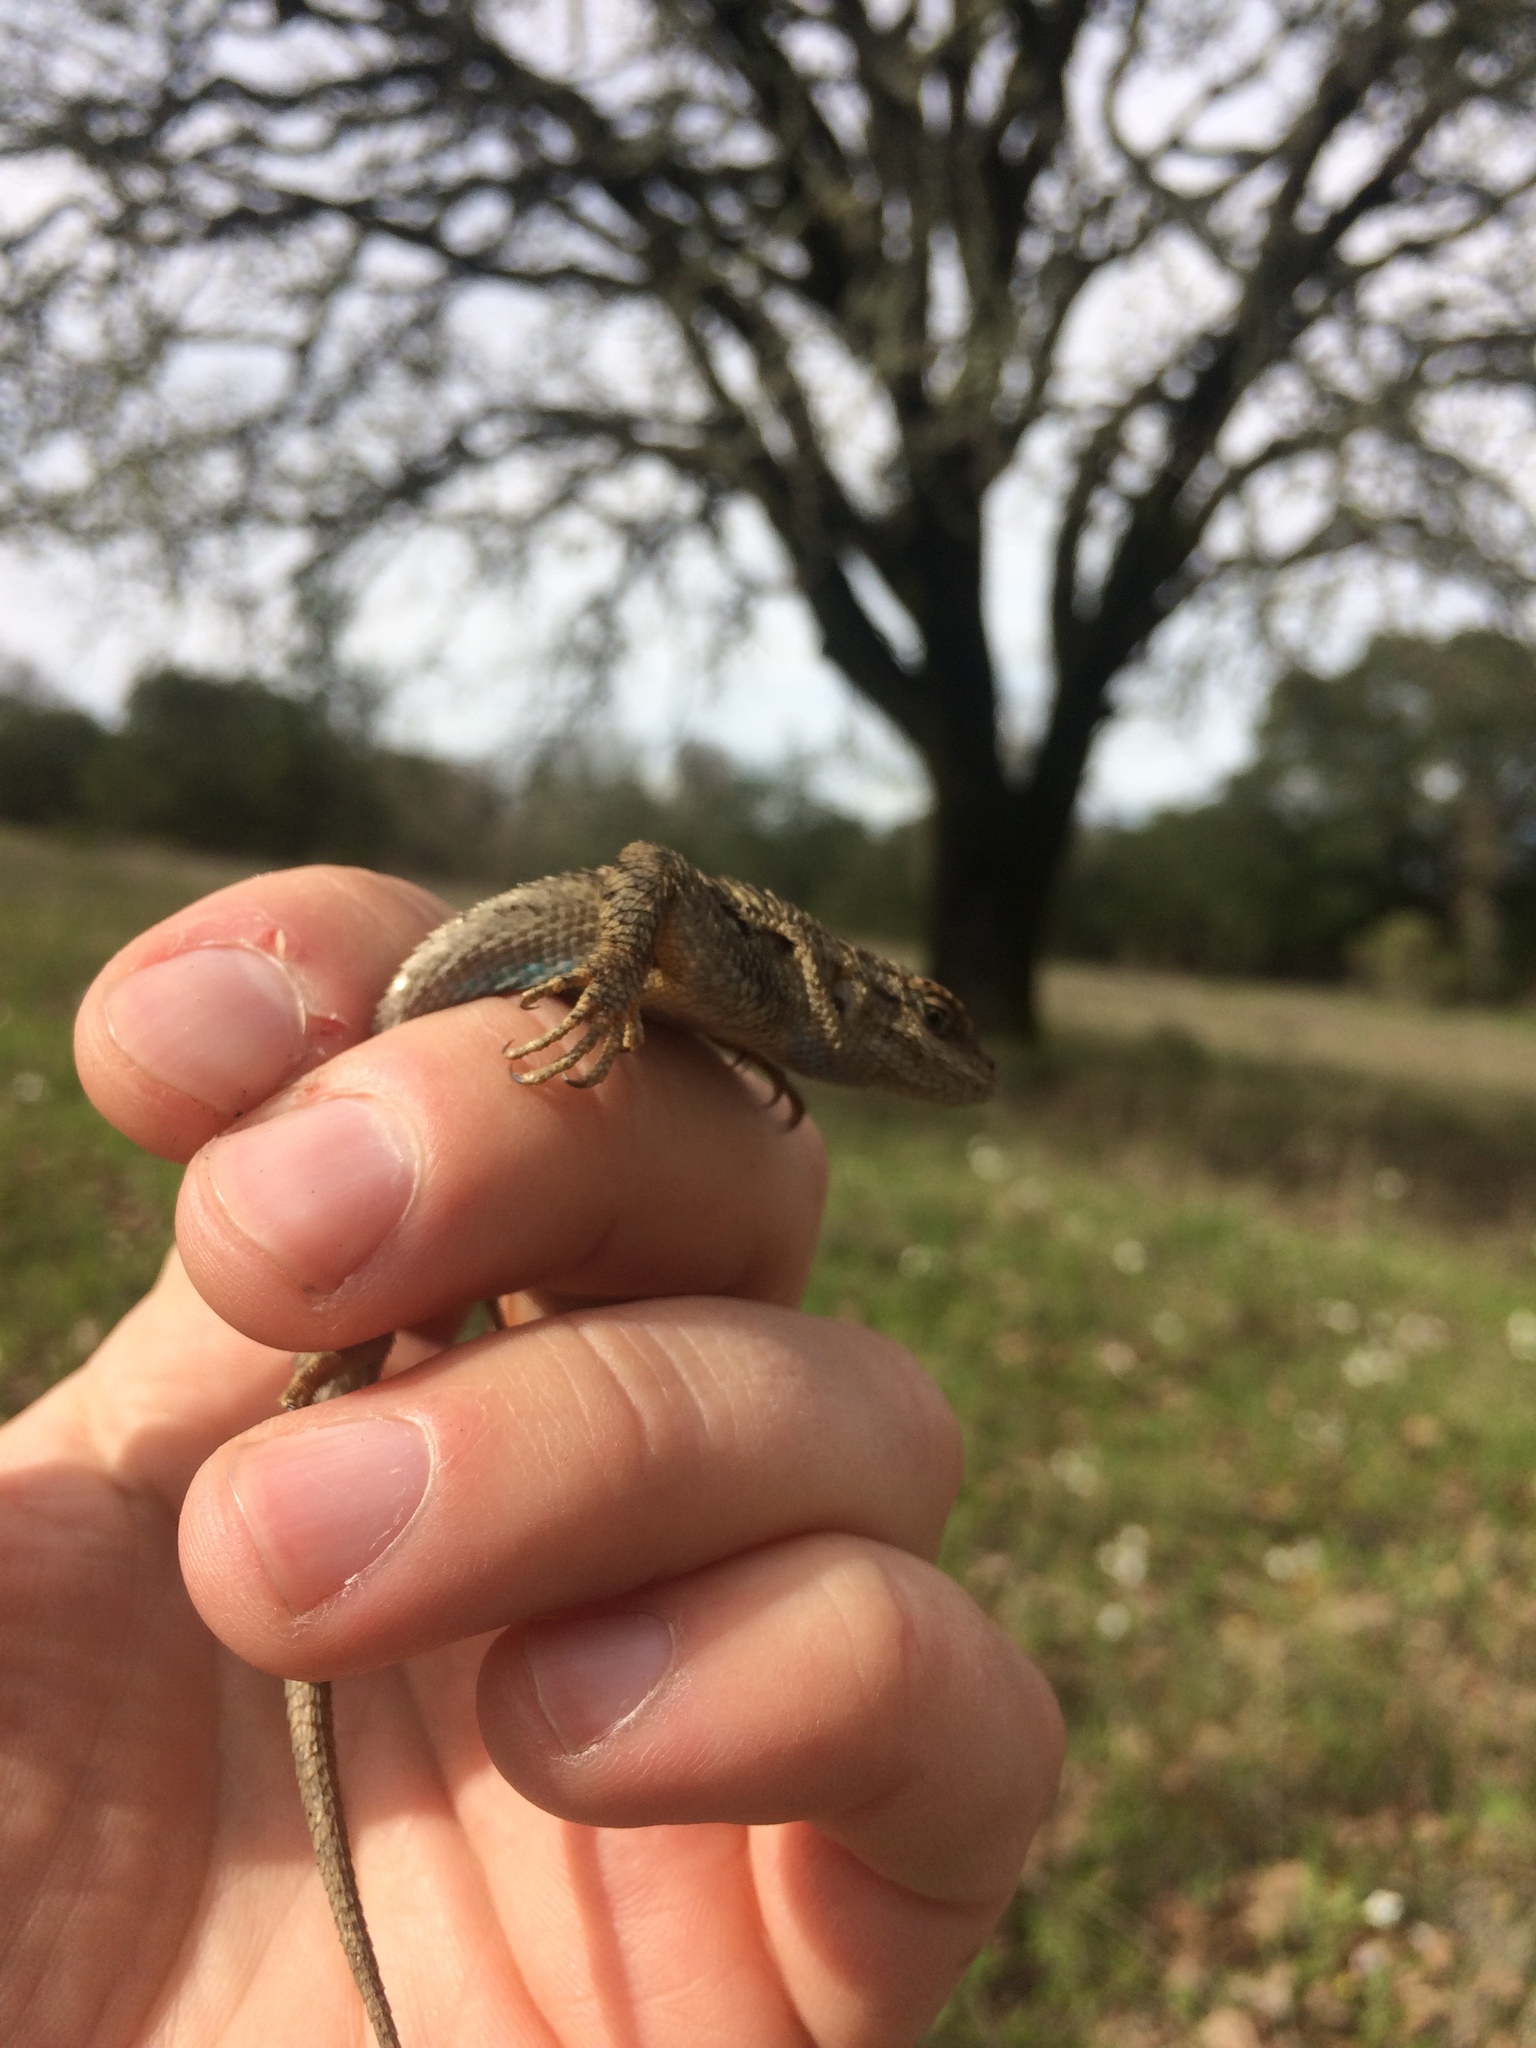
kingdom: Animalia
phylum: Chordata
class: Squamata
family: Phrynosomatidae
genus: Sceloporus
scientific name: Sceloporus occidentalis
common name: Western fence lizard
